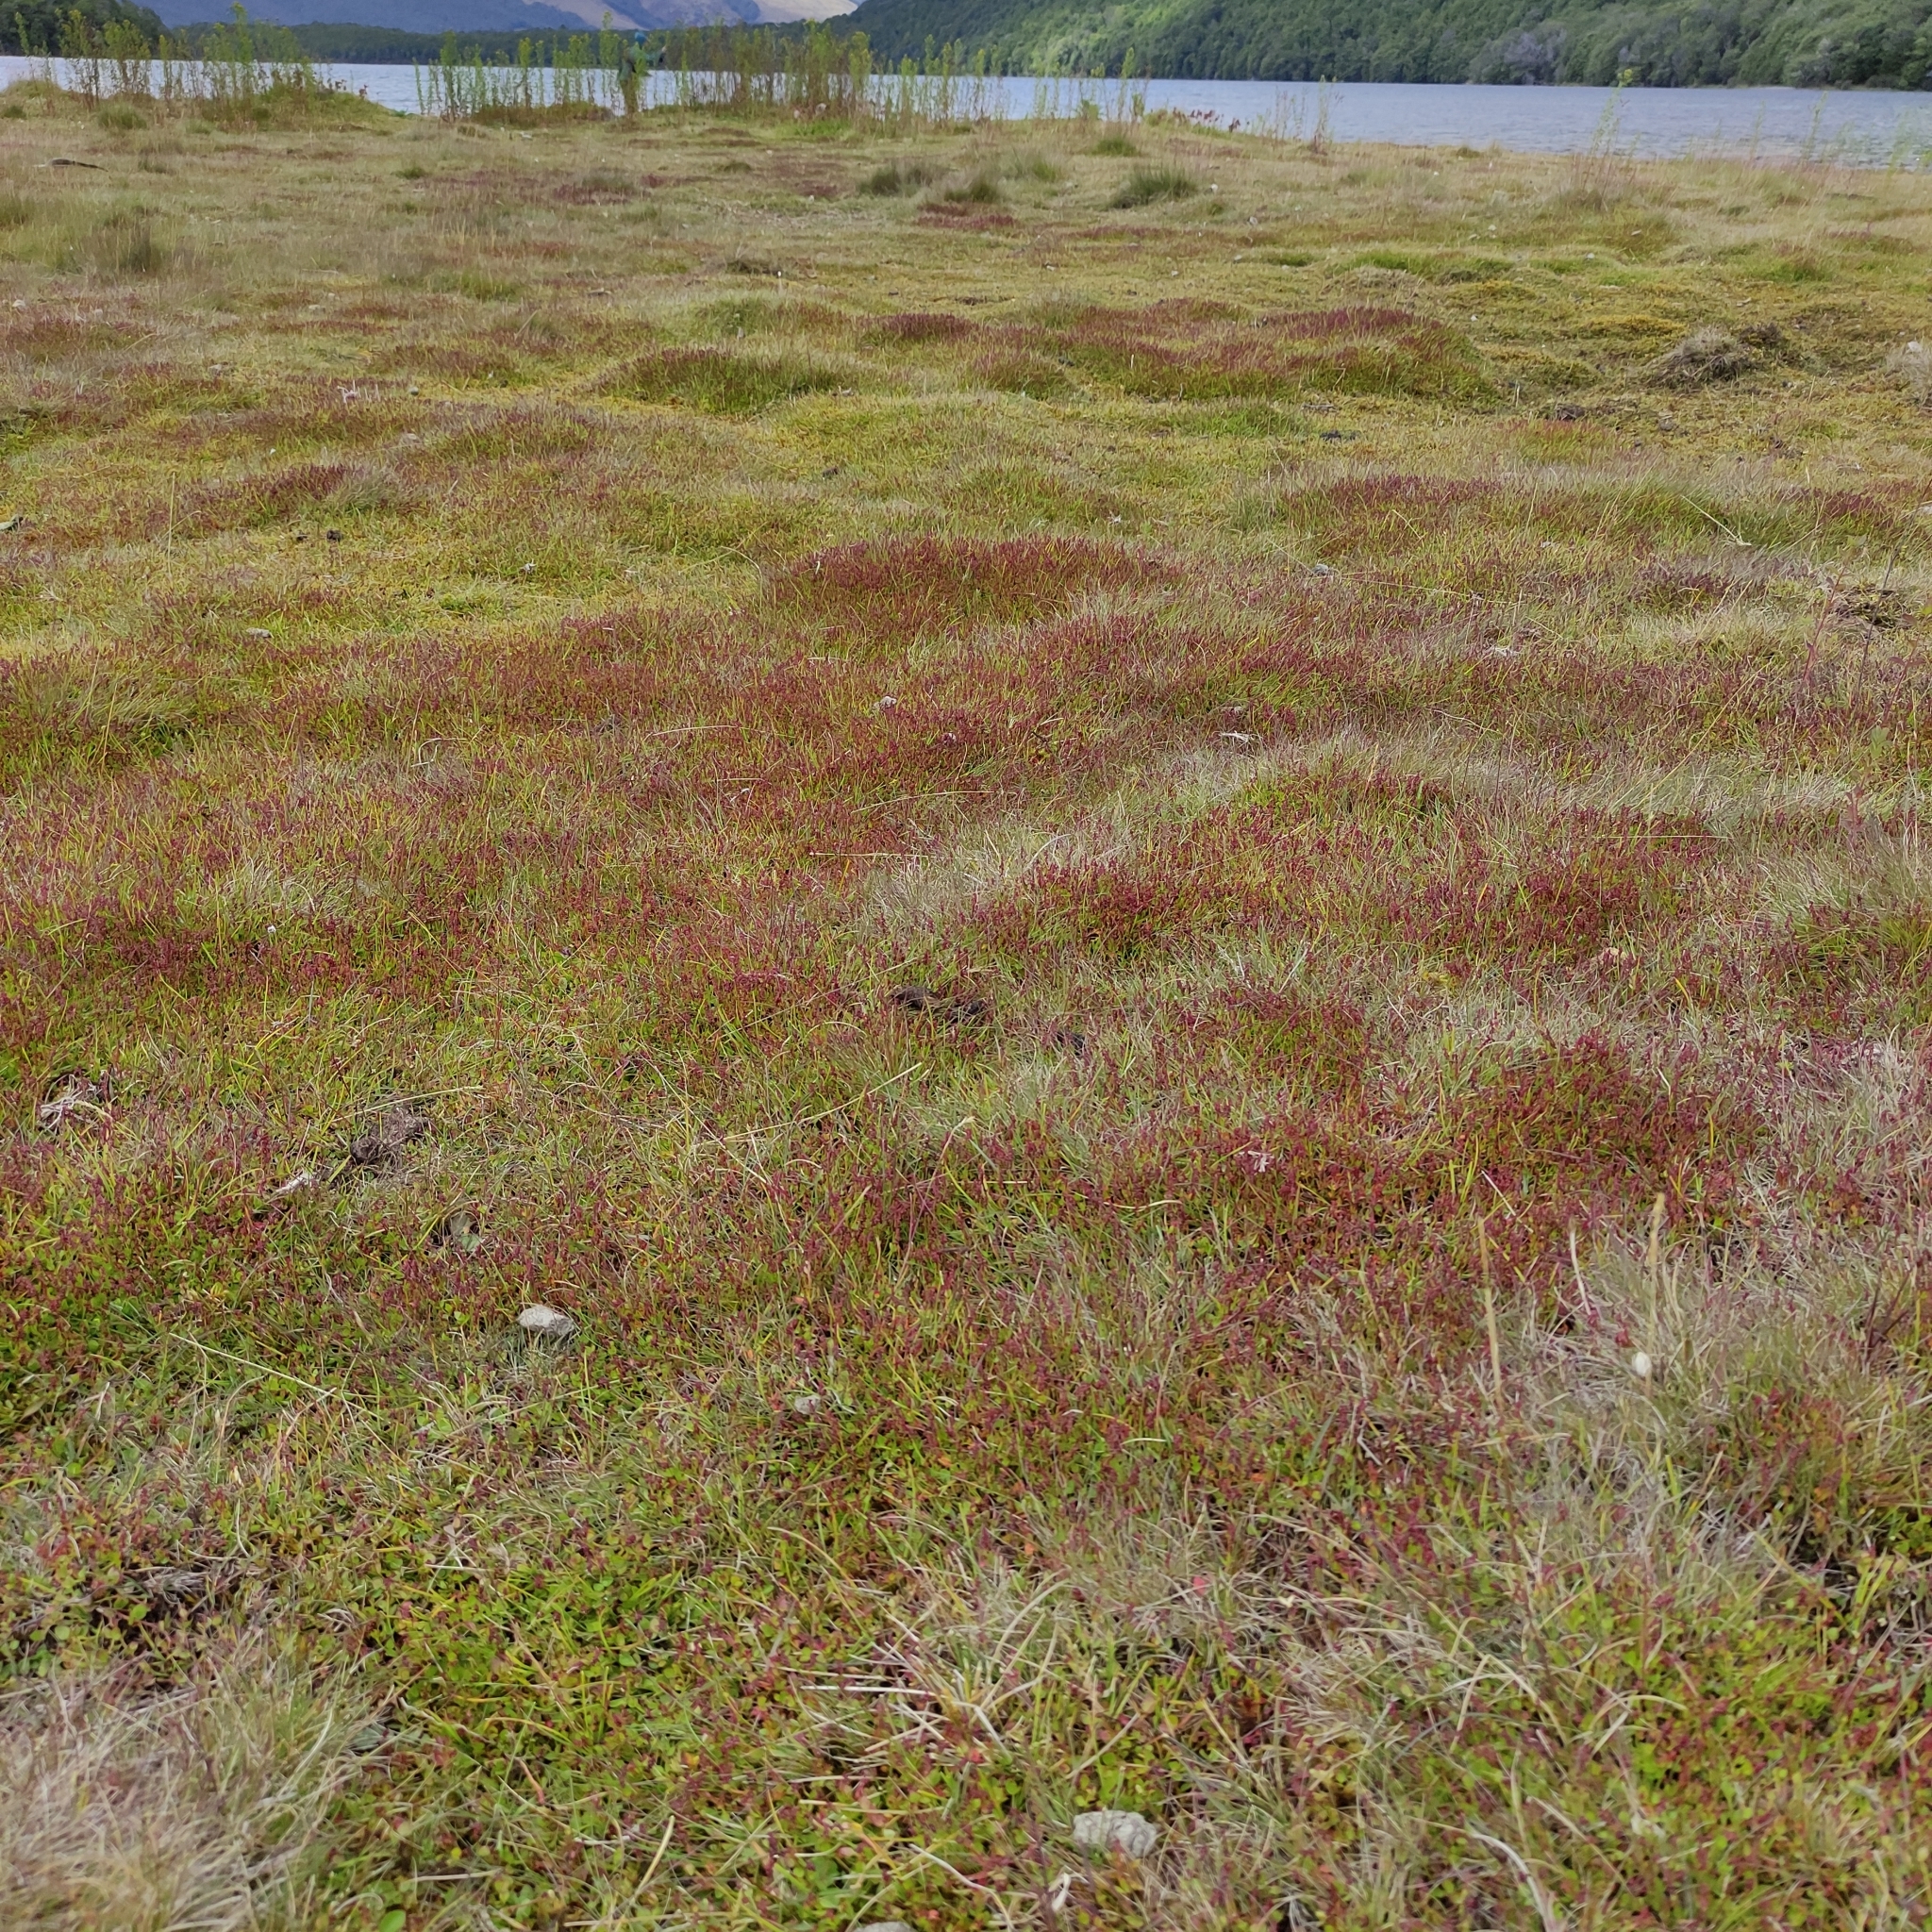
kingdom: Plantae
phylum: Tracheophyta
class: Magnoliopsida
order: Saxifragales
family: Haloragaceae
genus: Gonocarpus
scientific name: Gonocarpus micranthus
